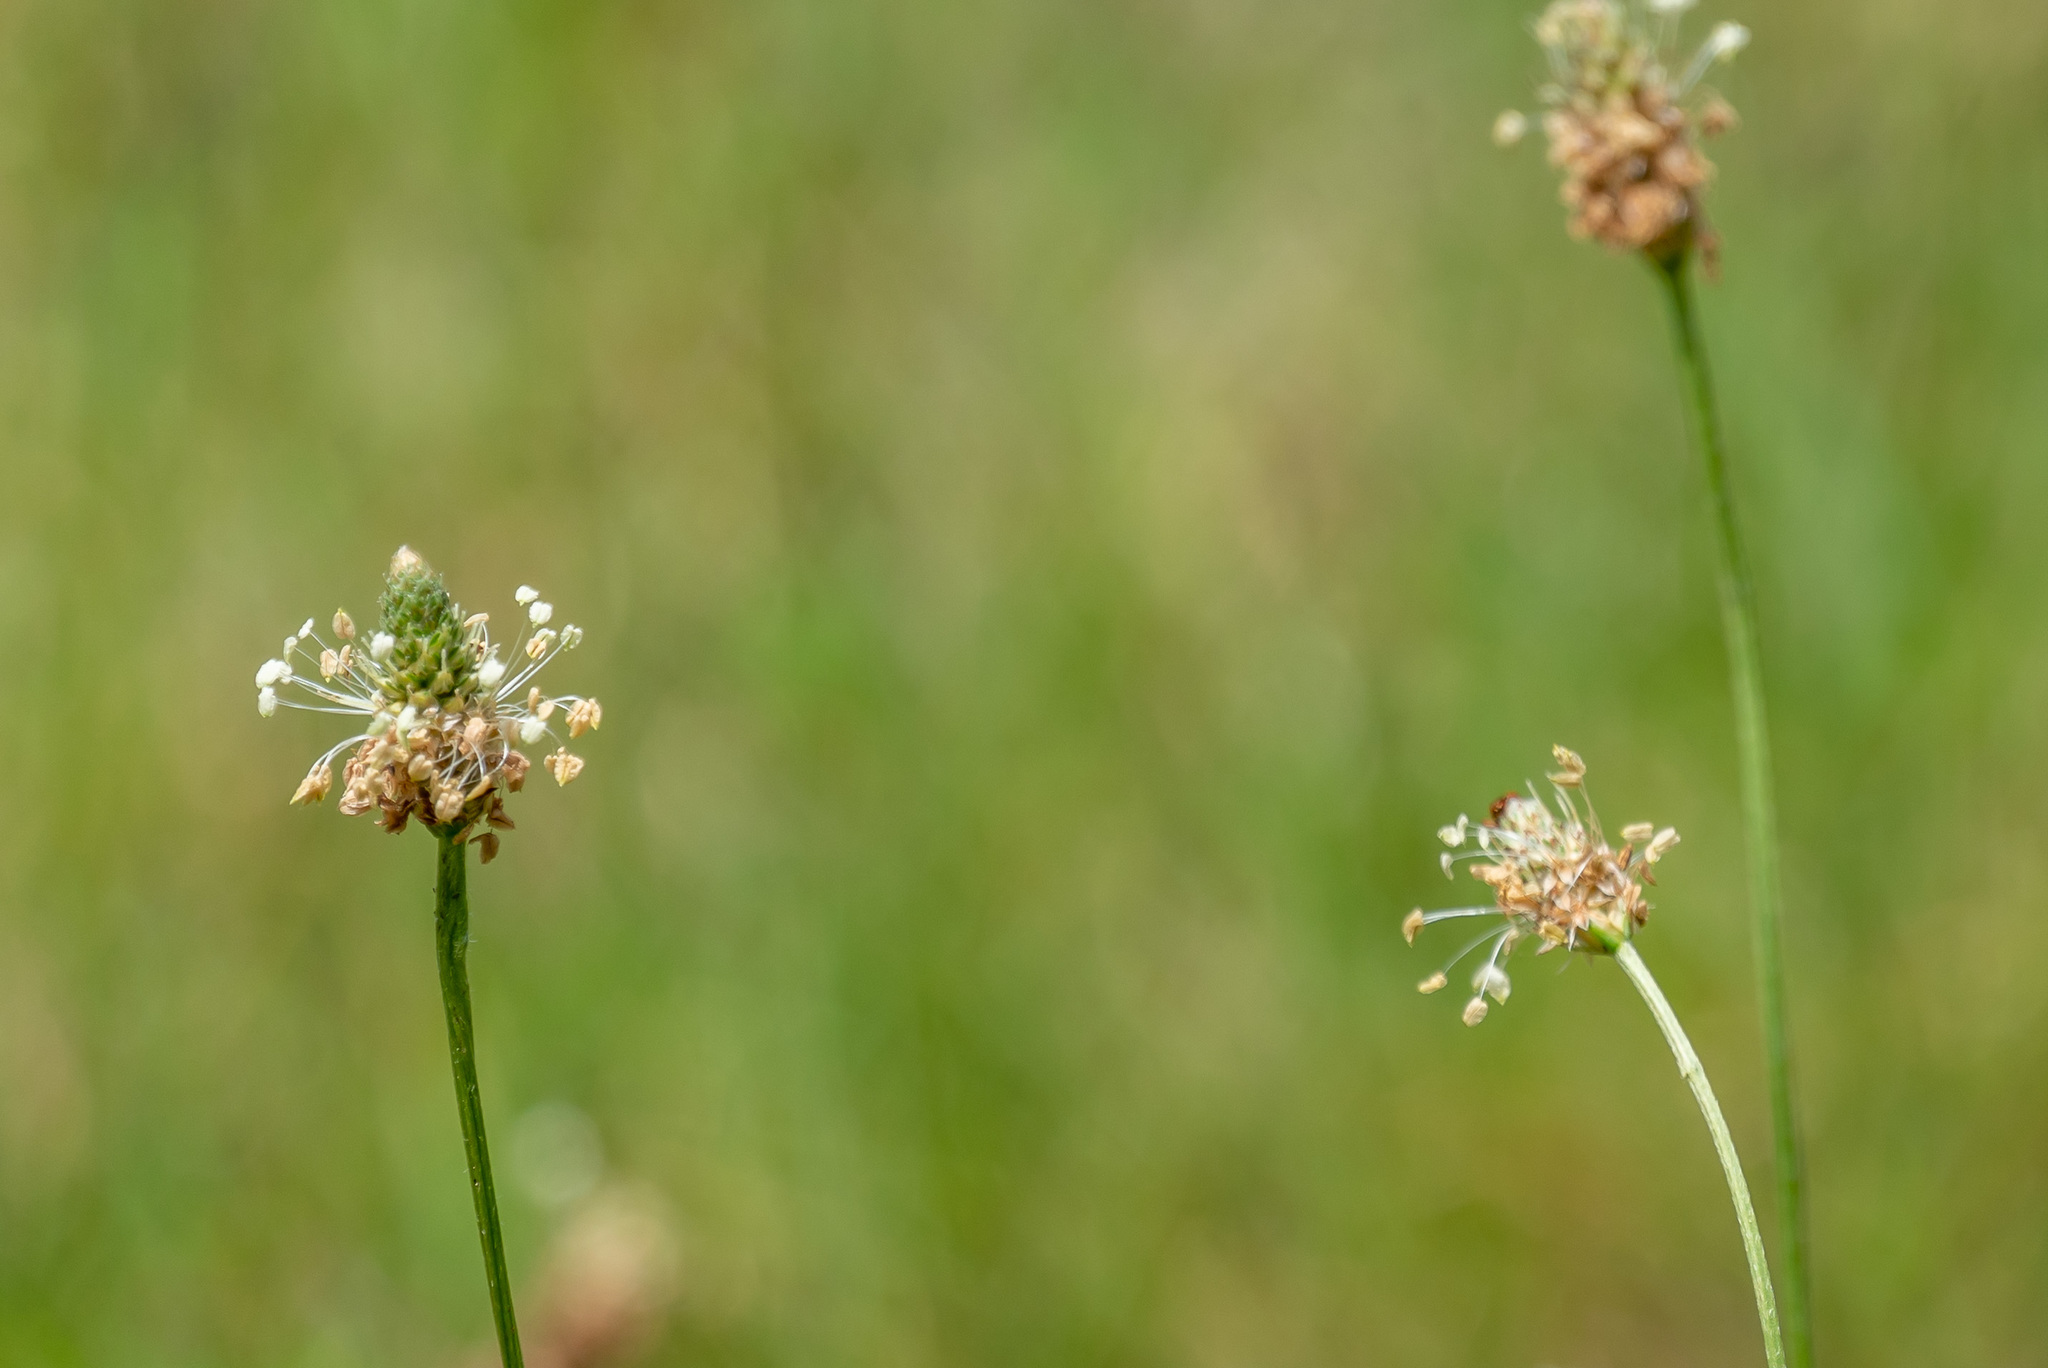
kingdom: Plantae
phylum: Tracheophyta
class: Magnoliopsida
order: Lamiales
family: Plantaginaceae
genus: Plantago
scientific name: Plantago lanceolata
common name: Ribwort plantain
